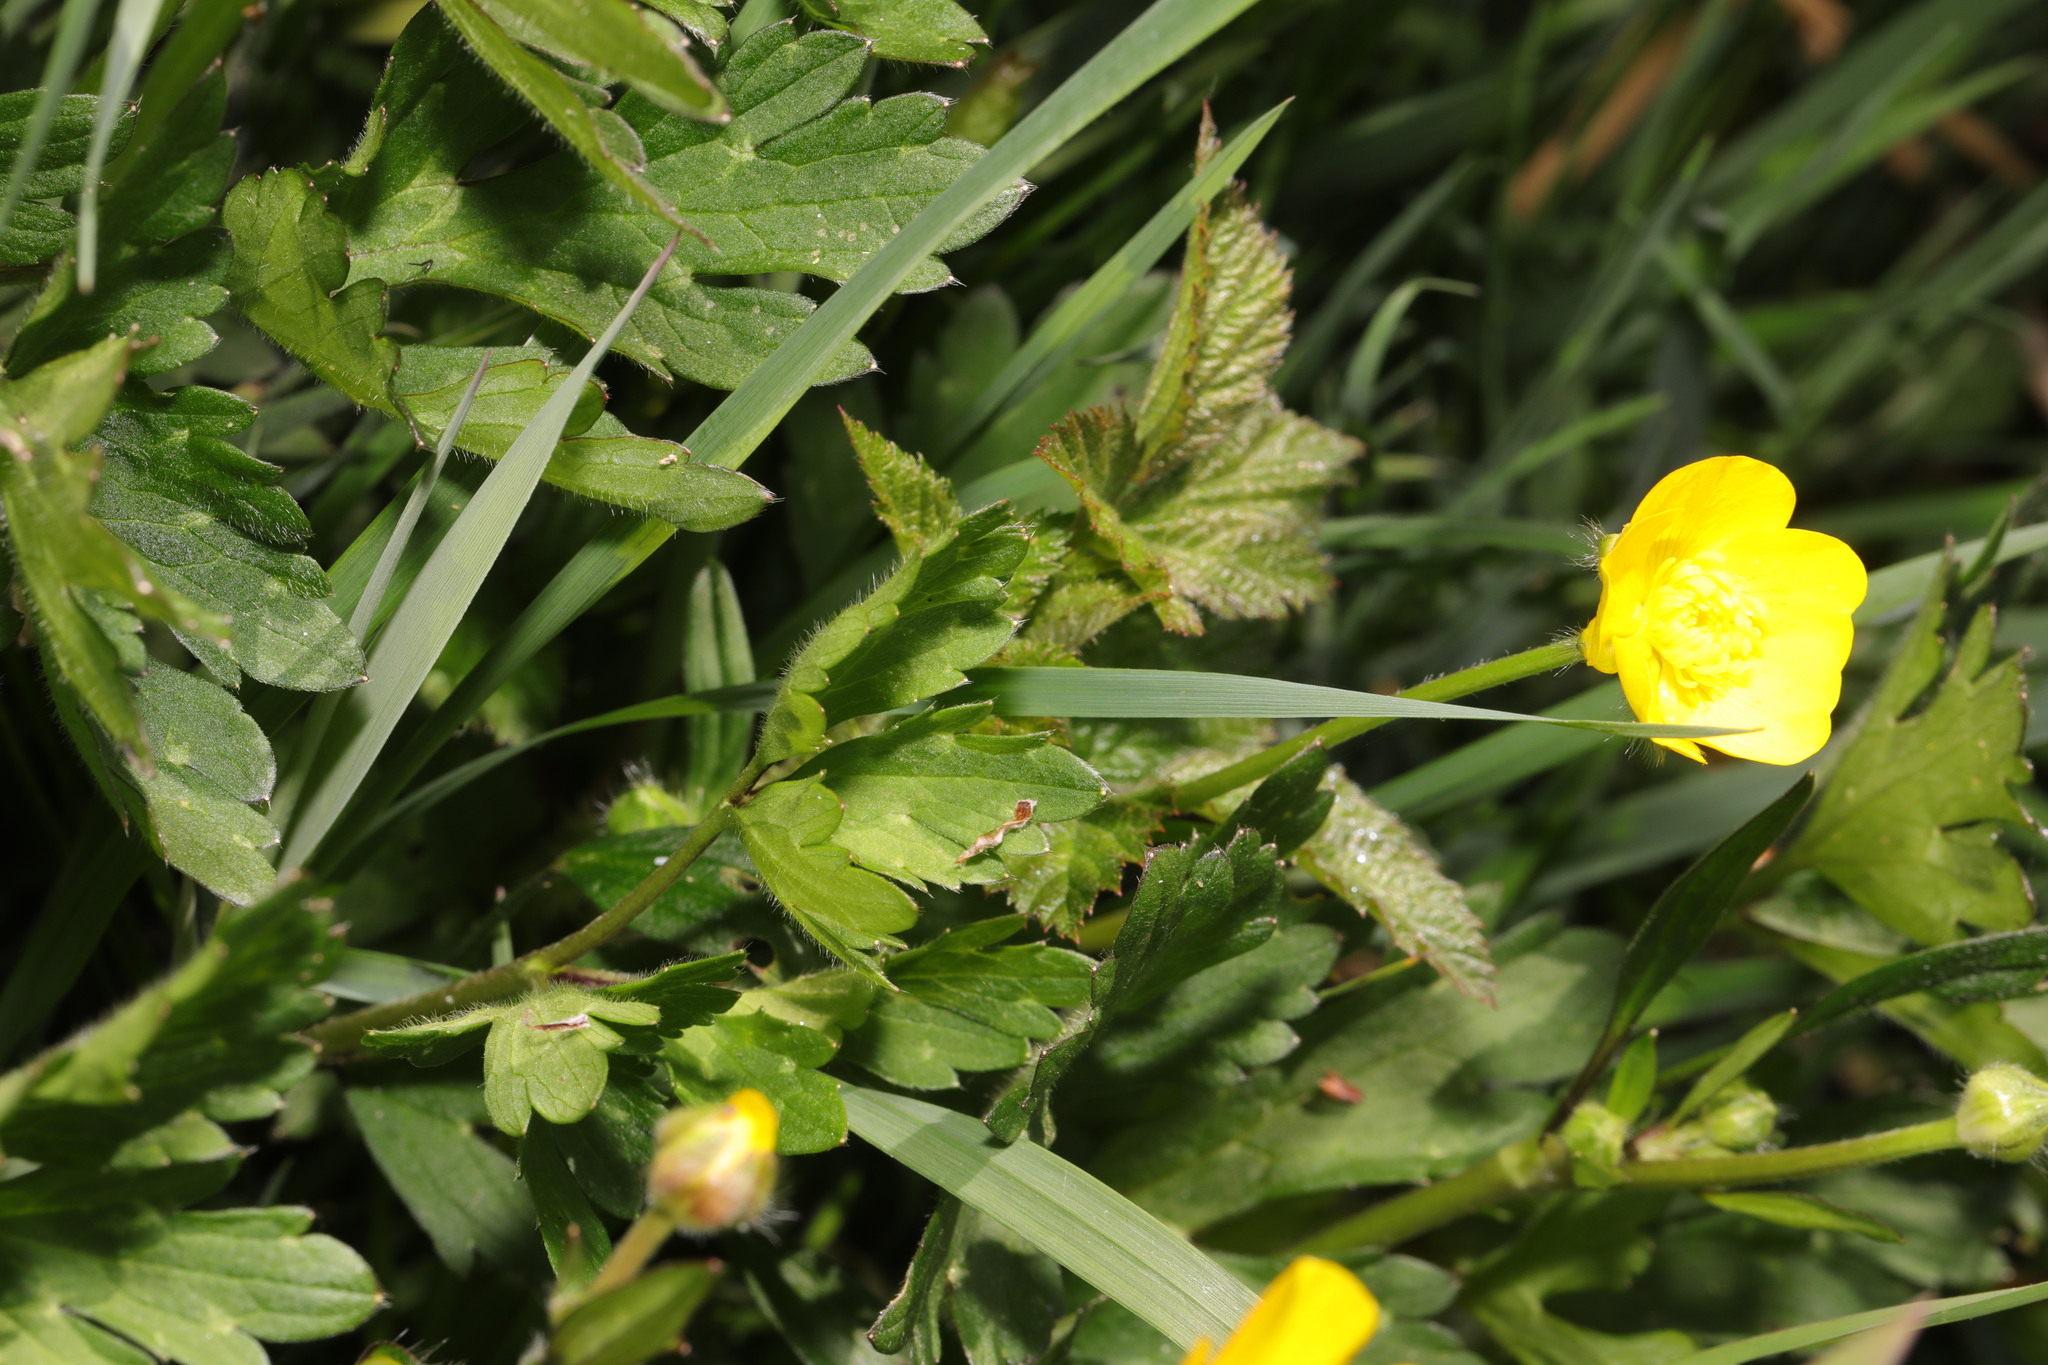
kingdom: Plantae
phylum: Tracheophyta
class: Magnoliopsida
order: Ranunculales
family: Ranunculaceae
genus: Ranunculus
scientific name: Ranunculus repens
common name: Creeping buttercup
